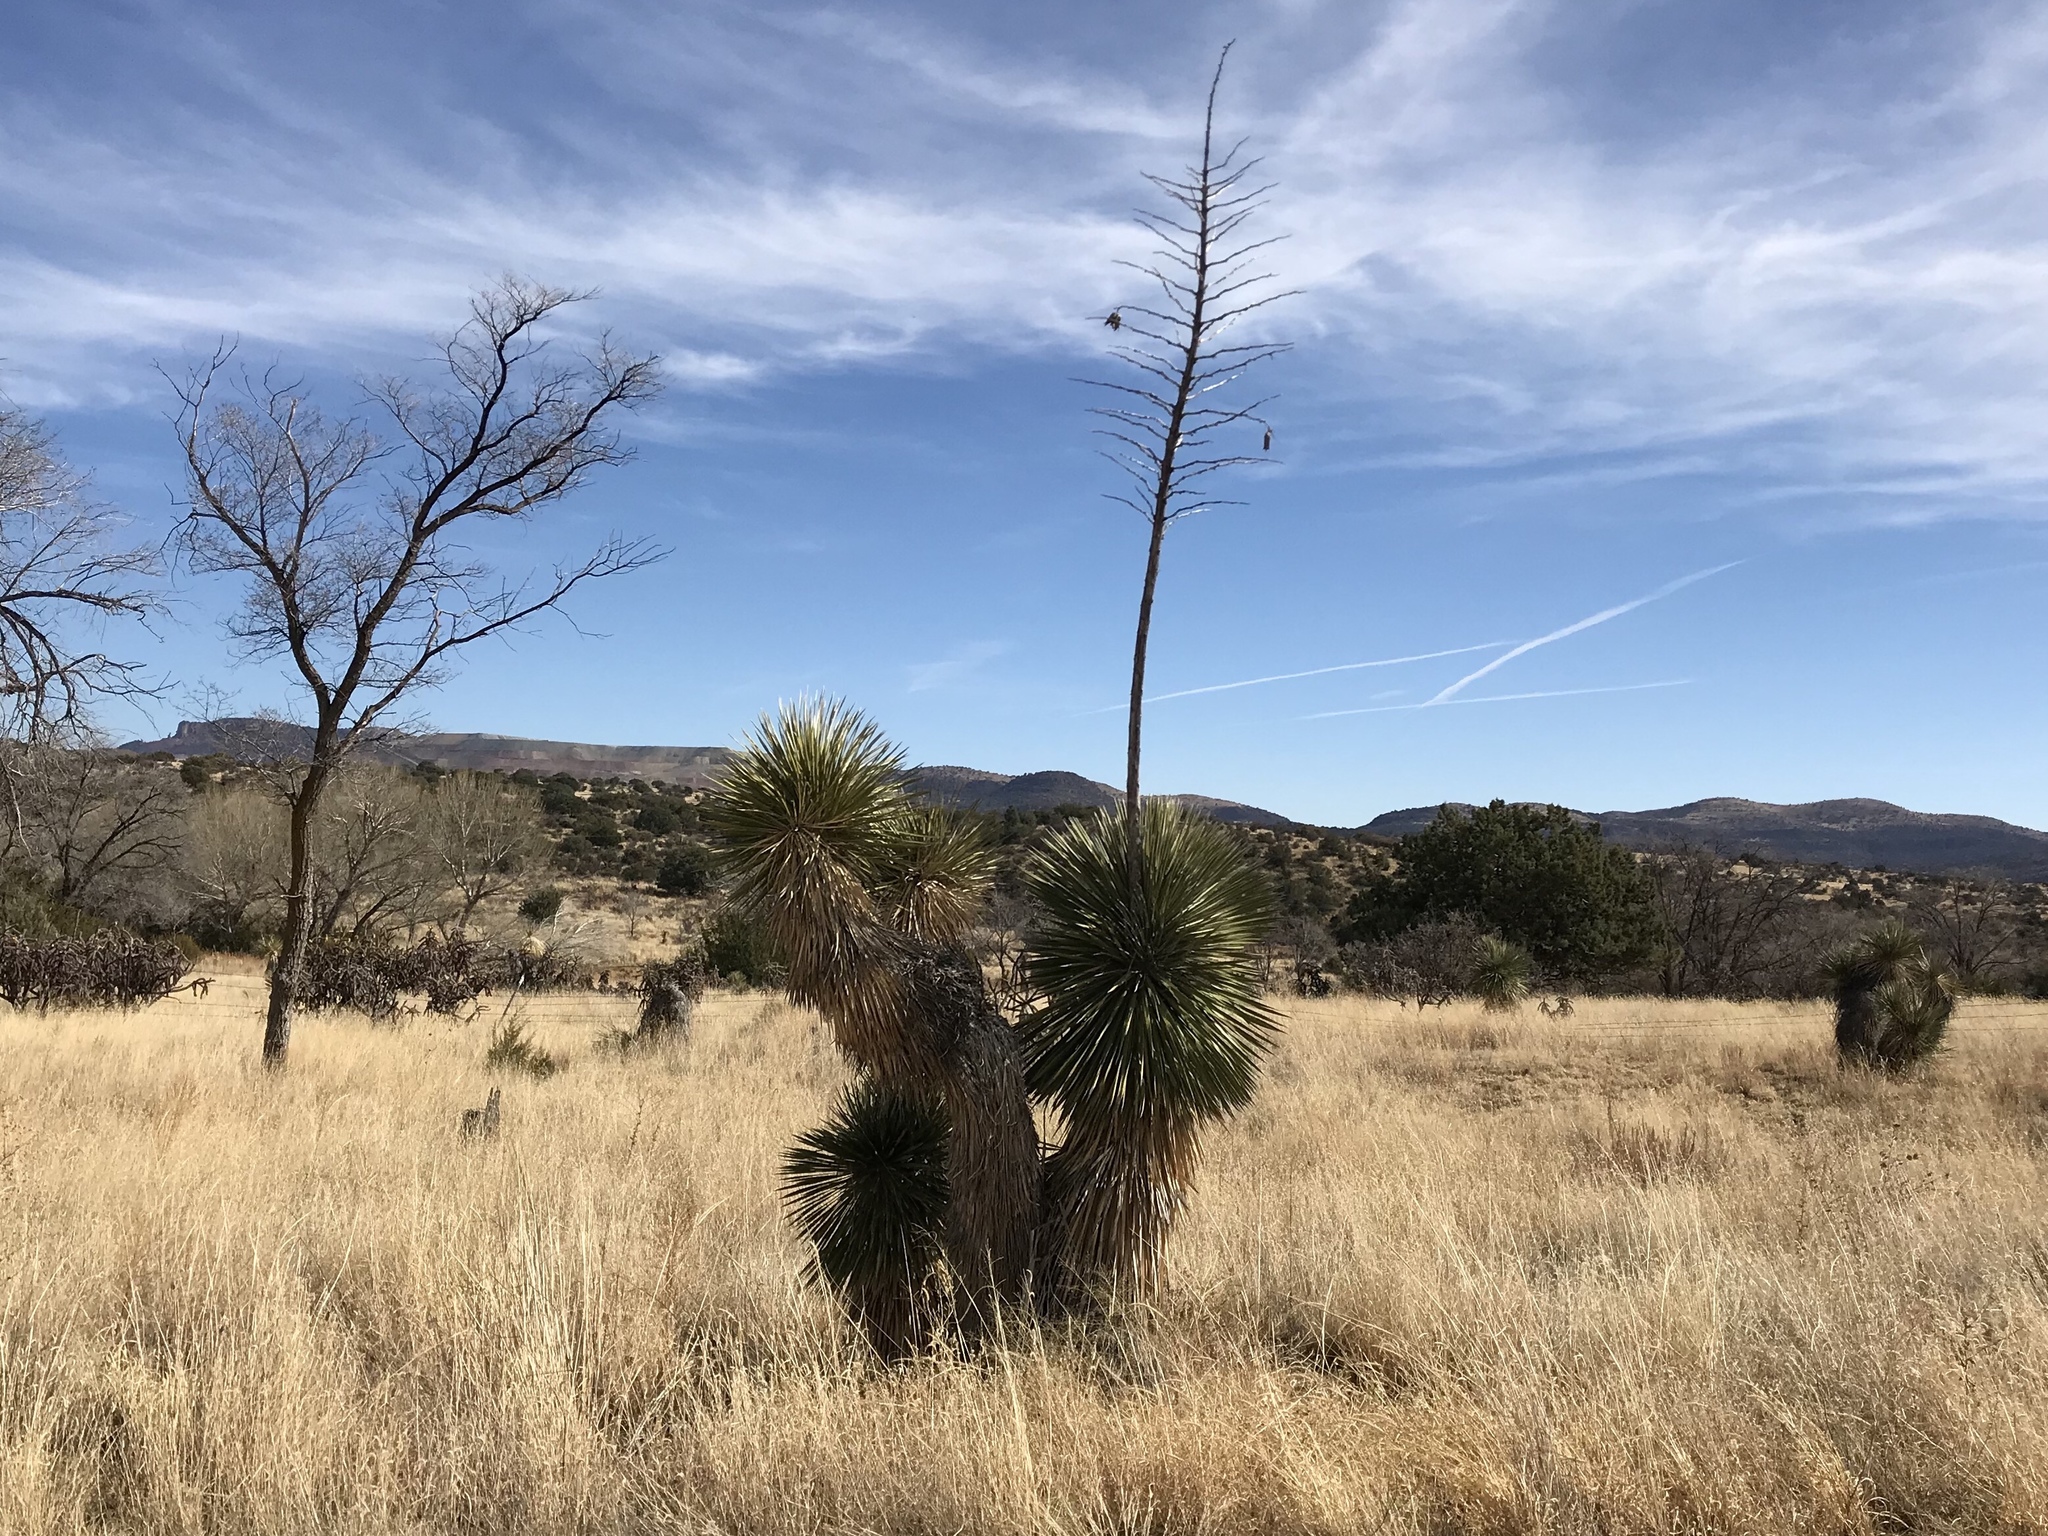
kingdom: Plantae
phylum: Tracheophyta
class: Liliopsida
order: Asparagales
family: Asparagaceae
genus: Yucca
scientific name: Yucca elata
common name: Palmella
